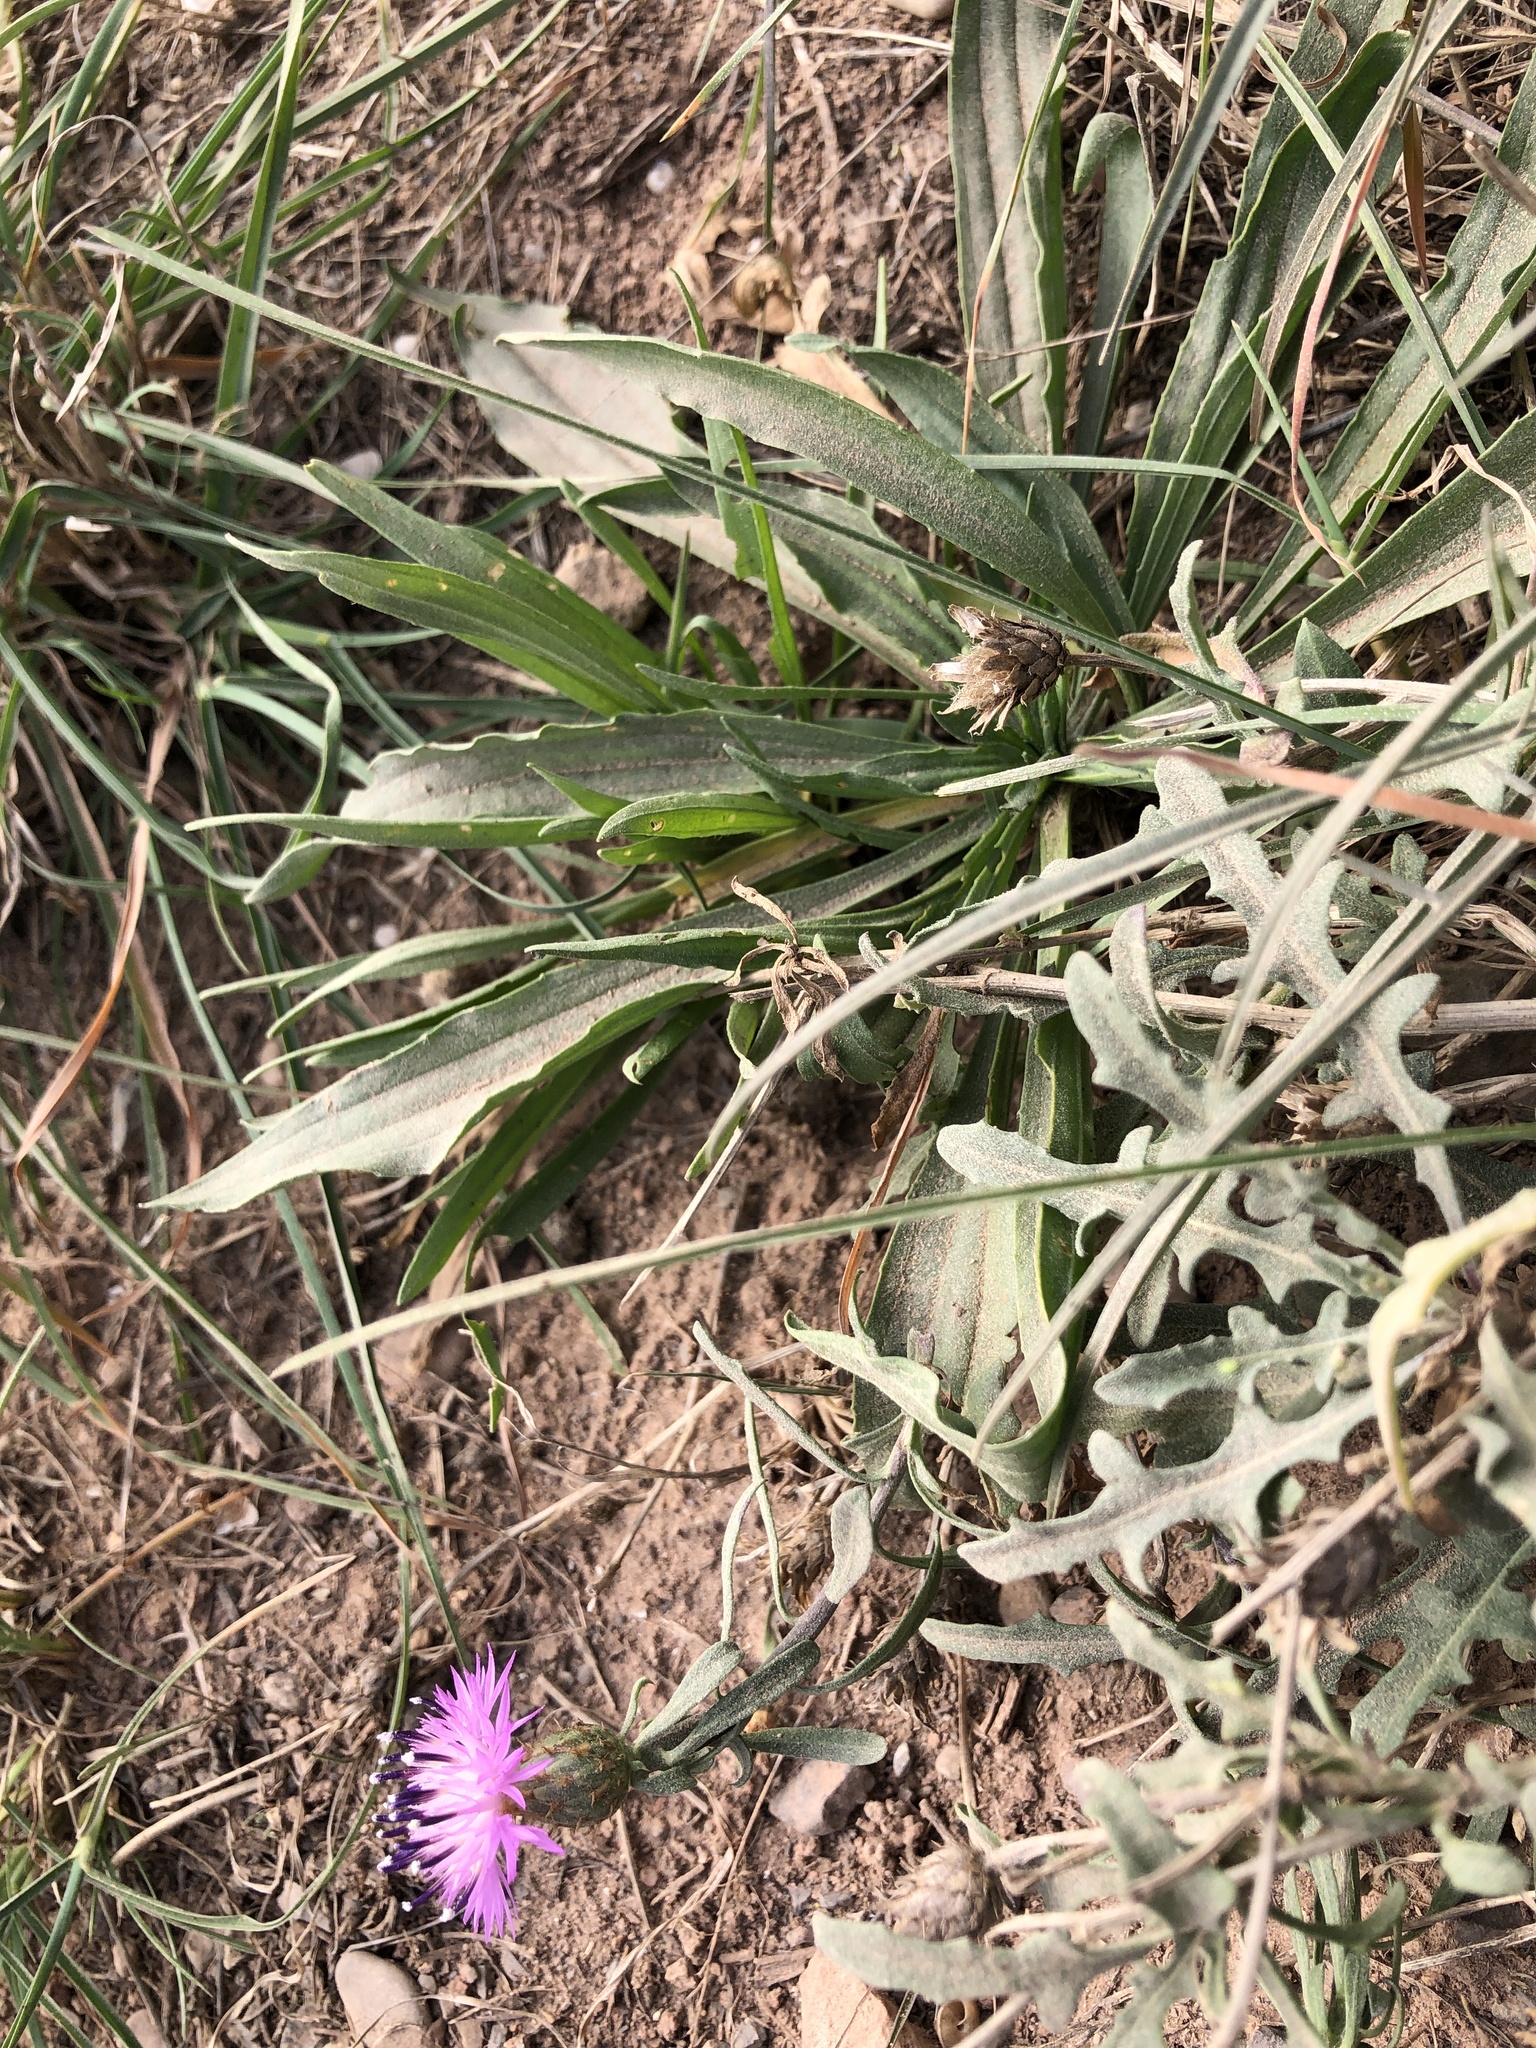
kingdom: Plantae
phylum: Tracheophyta
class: Magnoliopsida
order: Asterales
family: Asteraceae
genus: Centaurea
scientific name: Centaurea aspera
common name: Rough star-thistle
